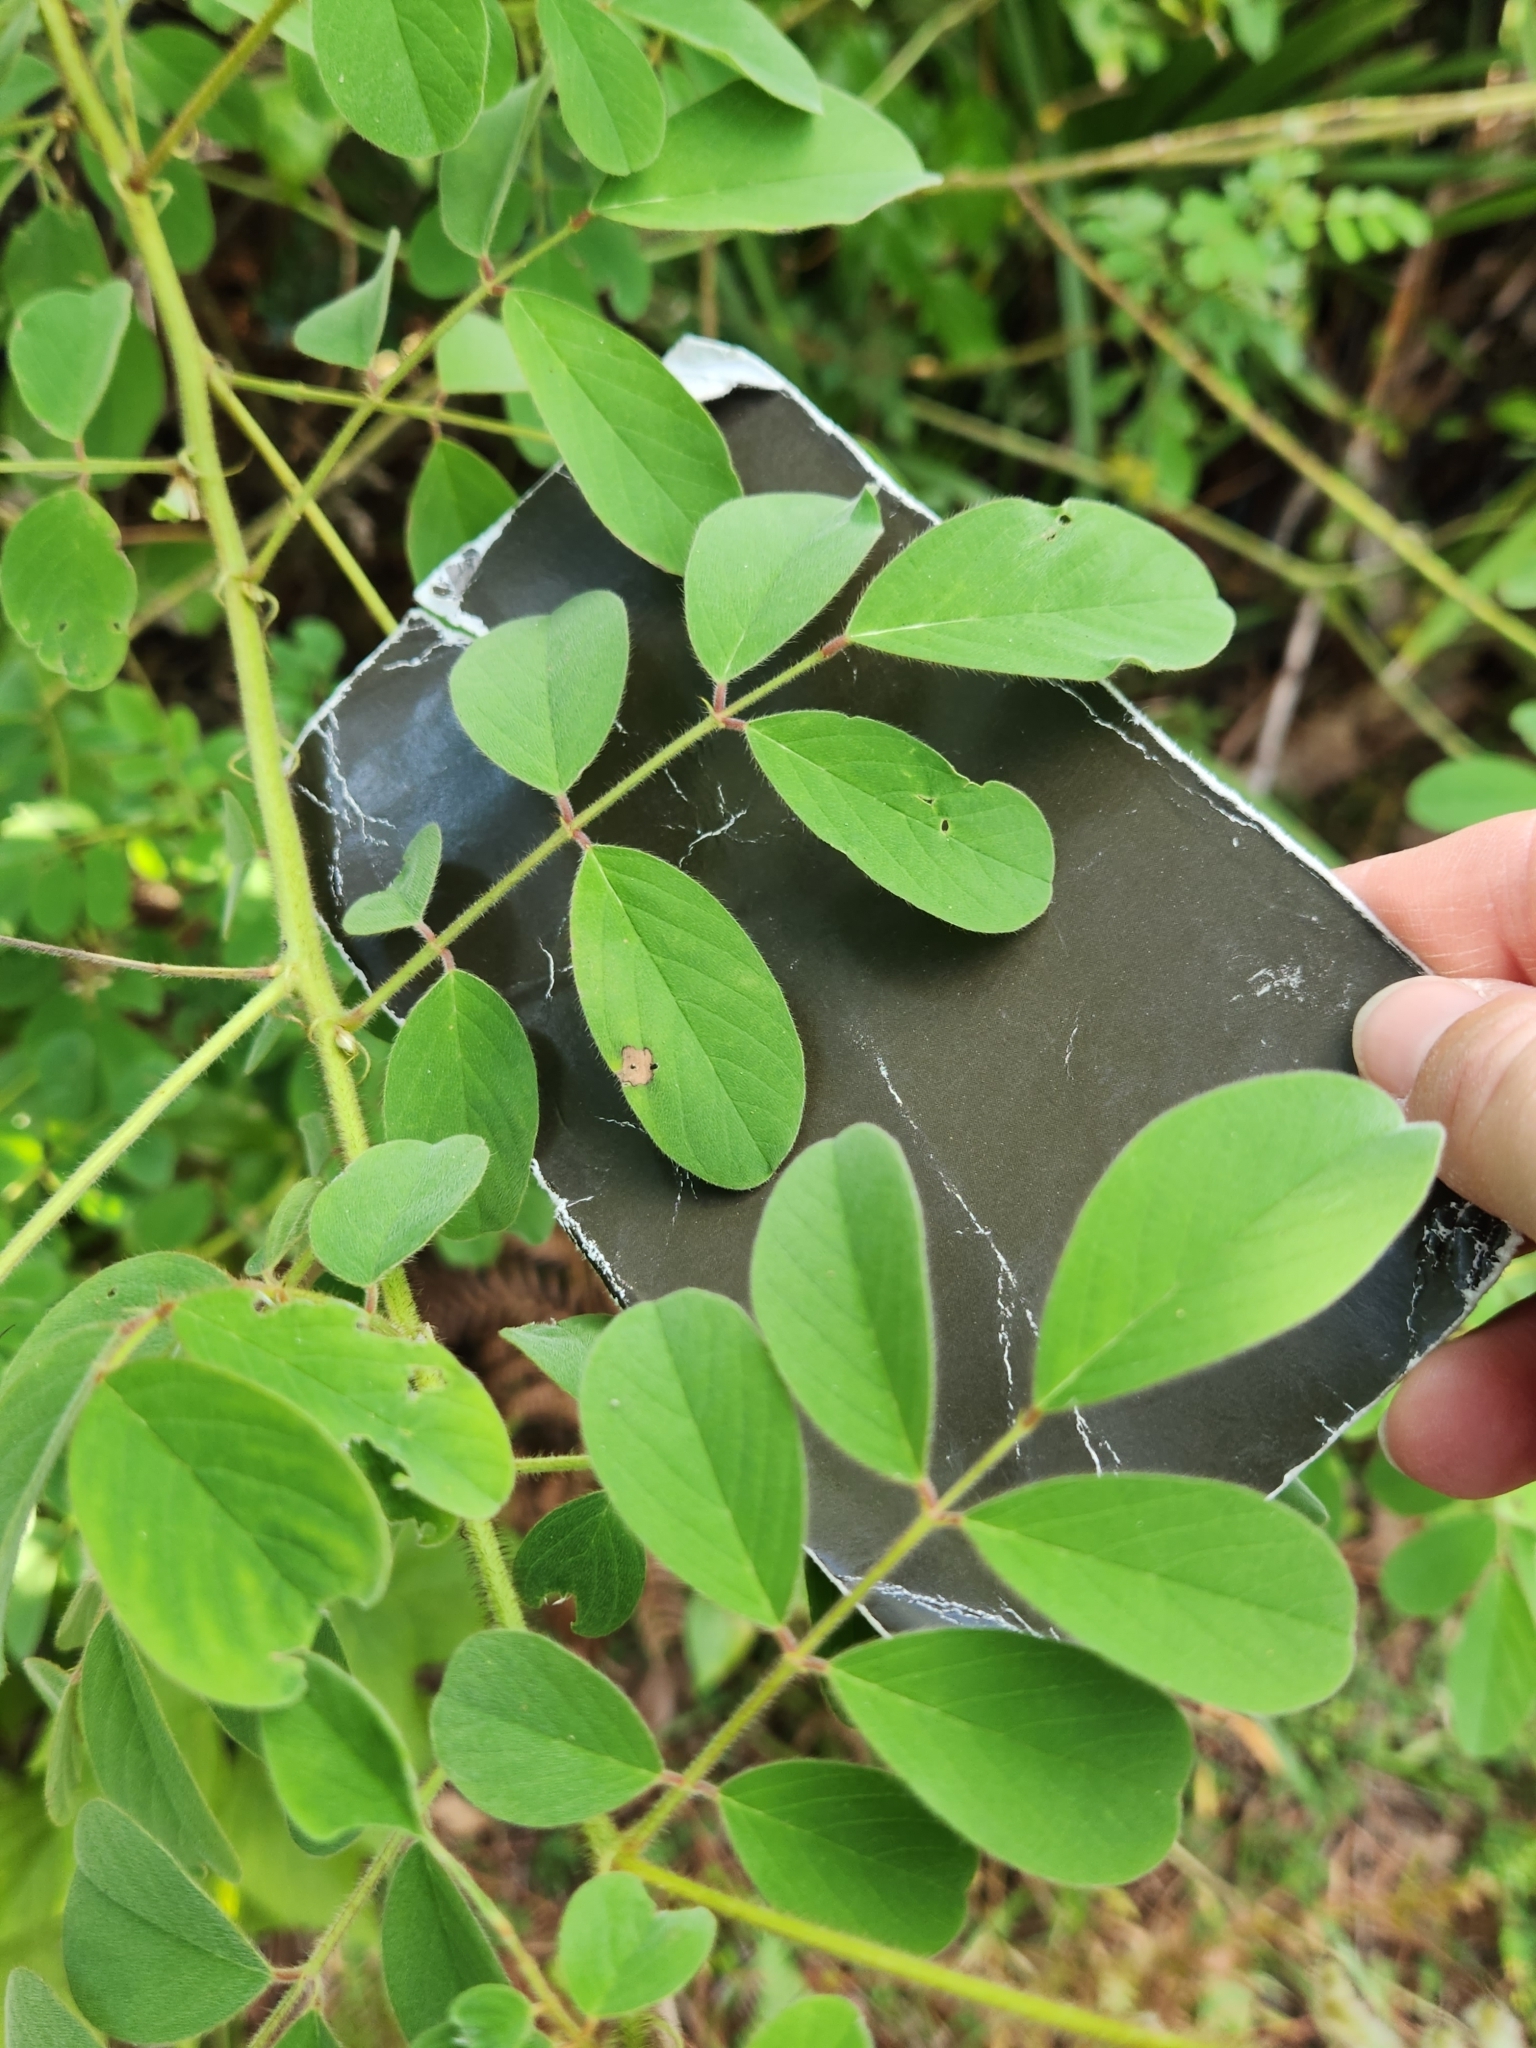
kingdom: Plantae
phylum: Tracheophyta
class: Magnoliopsida
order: Fabales
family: Fabaceae
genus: Indigofera
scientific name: Indigofera hirsuta
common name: Hairy indigo
